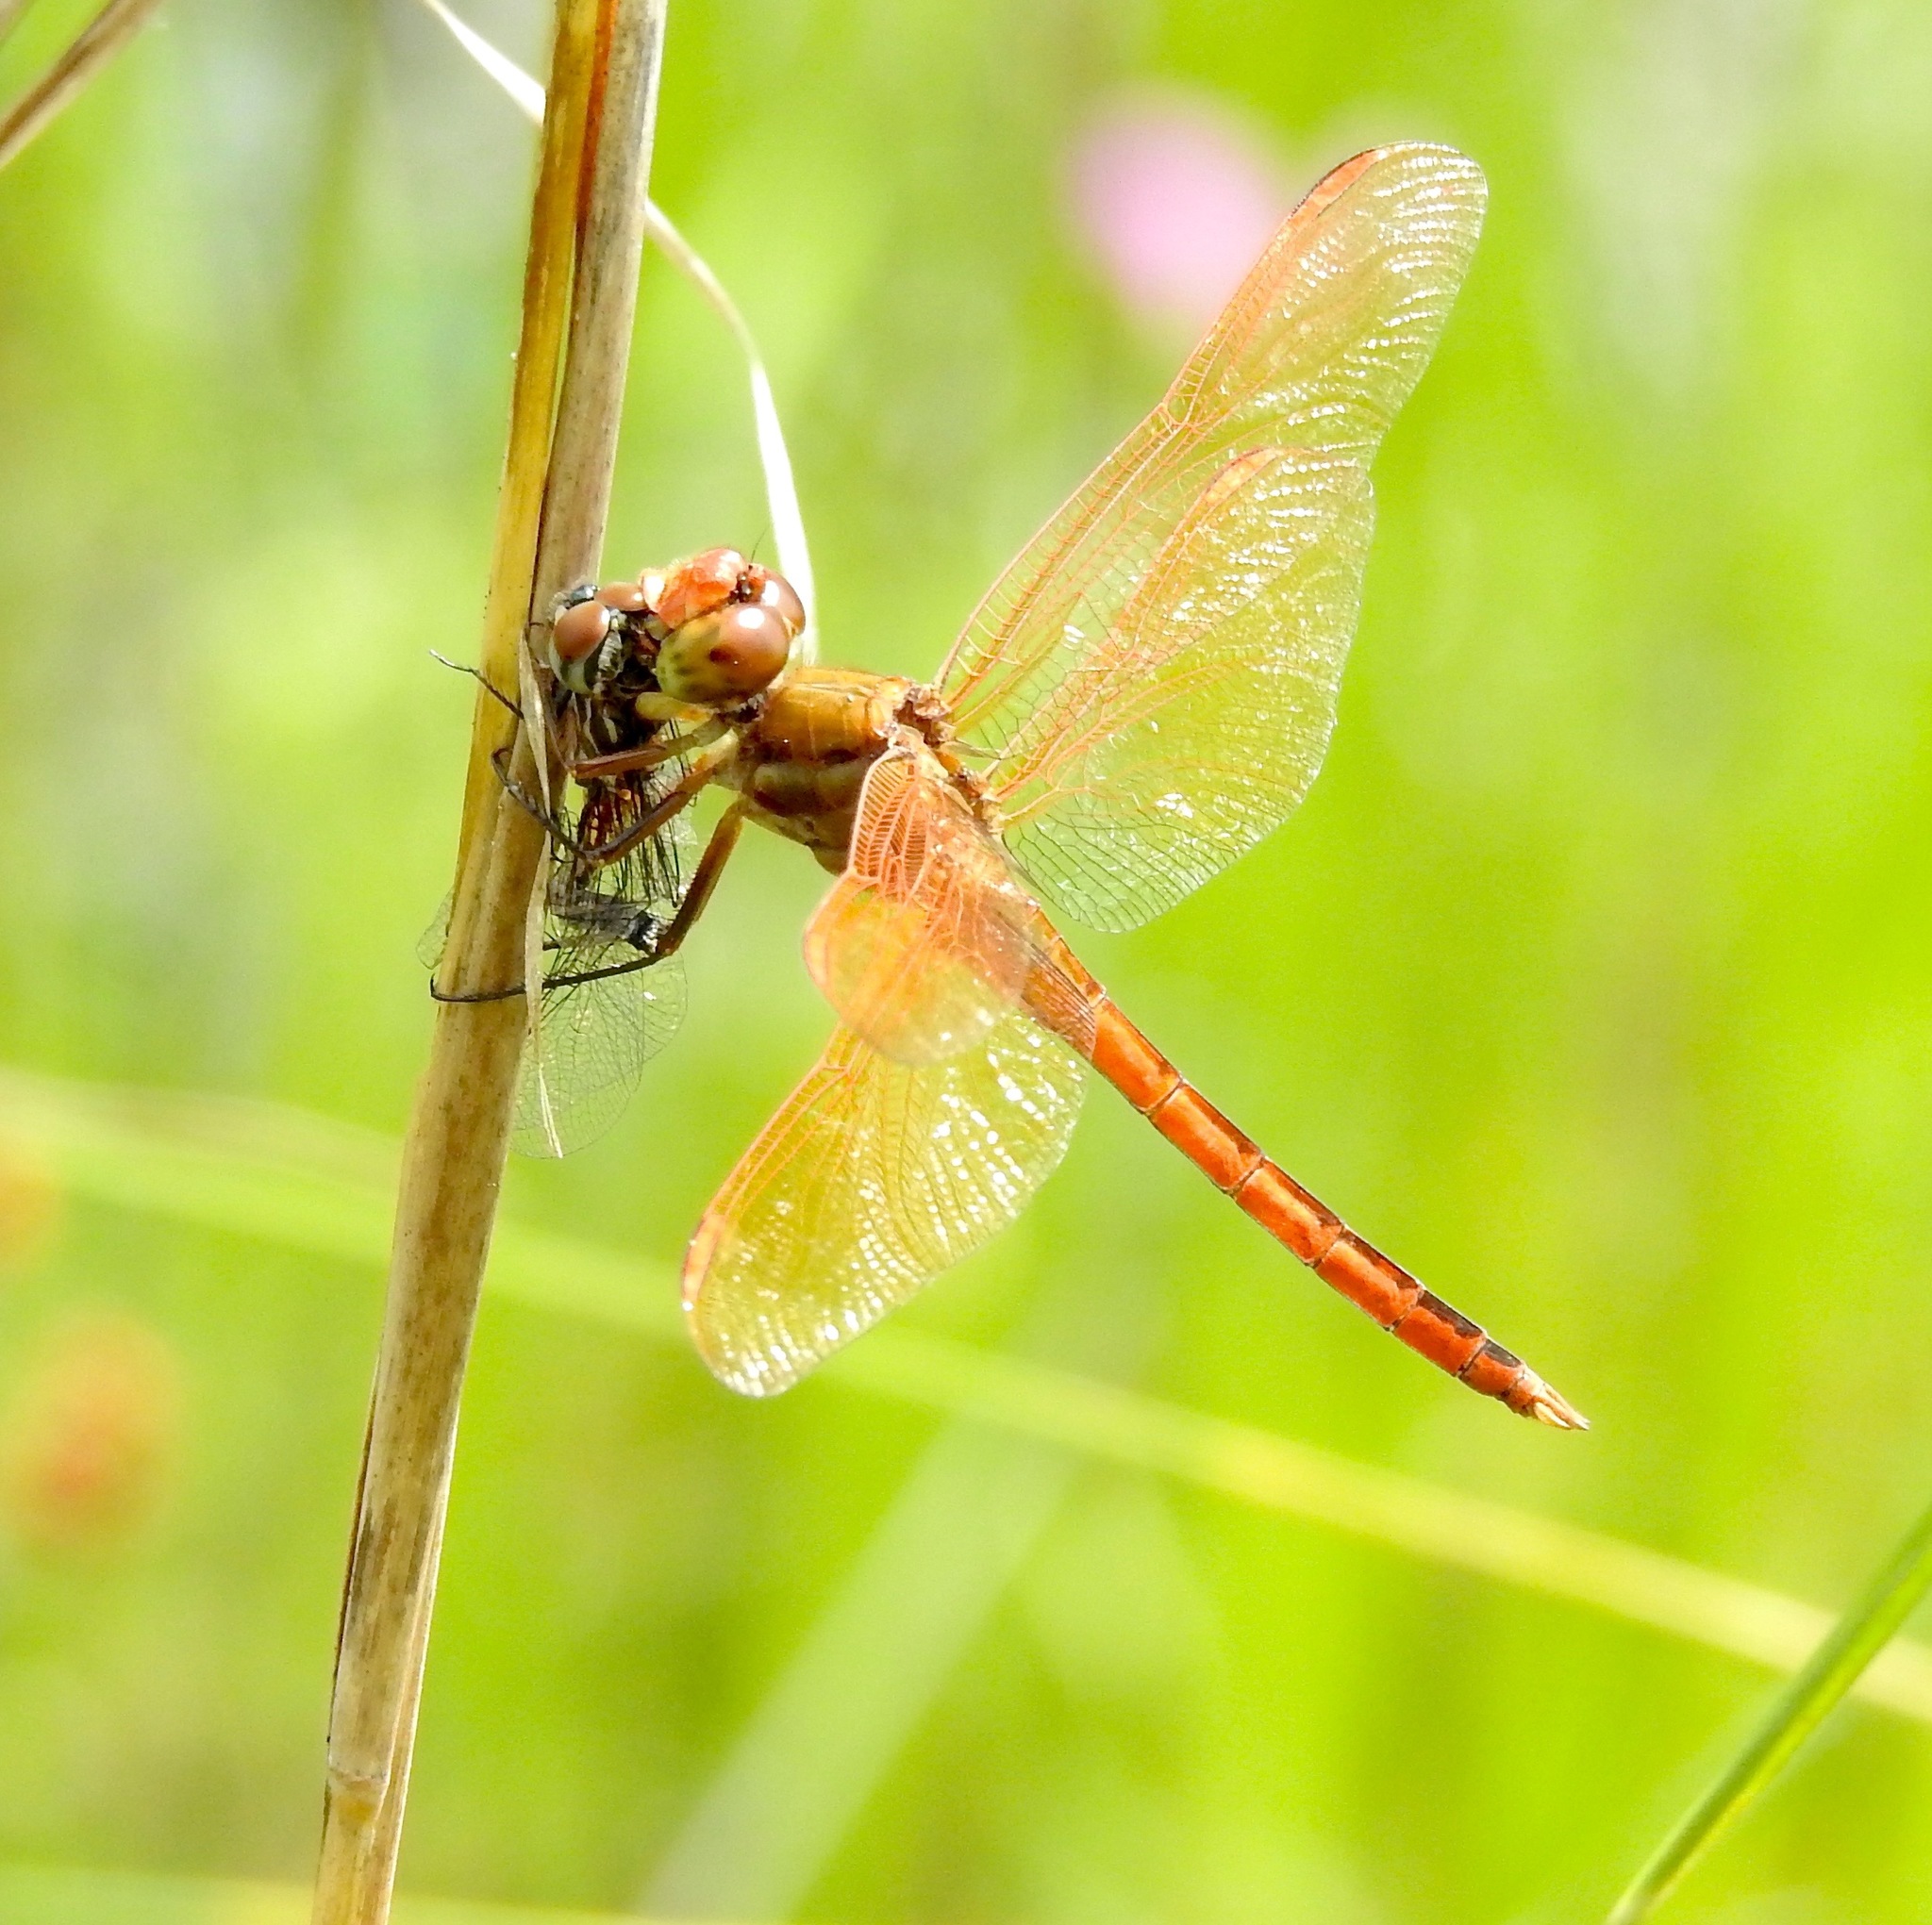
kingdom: Animalia
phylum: Arthropoda
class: Insecta
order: Odonata
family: Libellulidae
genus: Libellula
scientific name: Libellula auripennis
